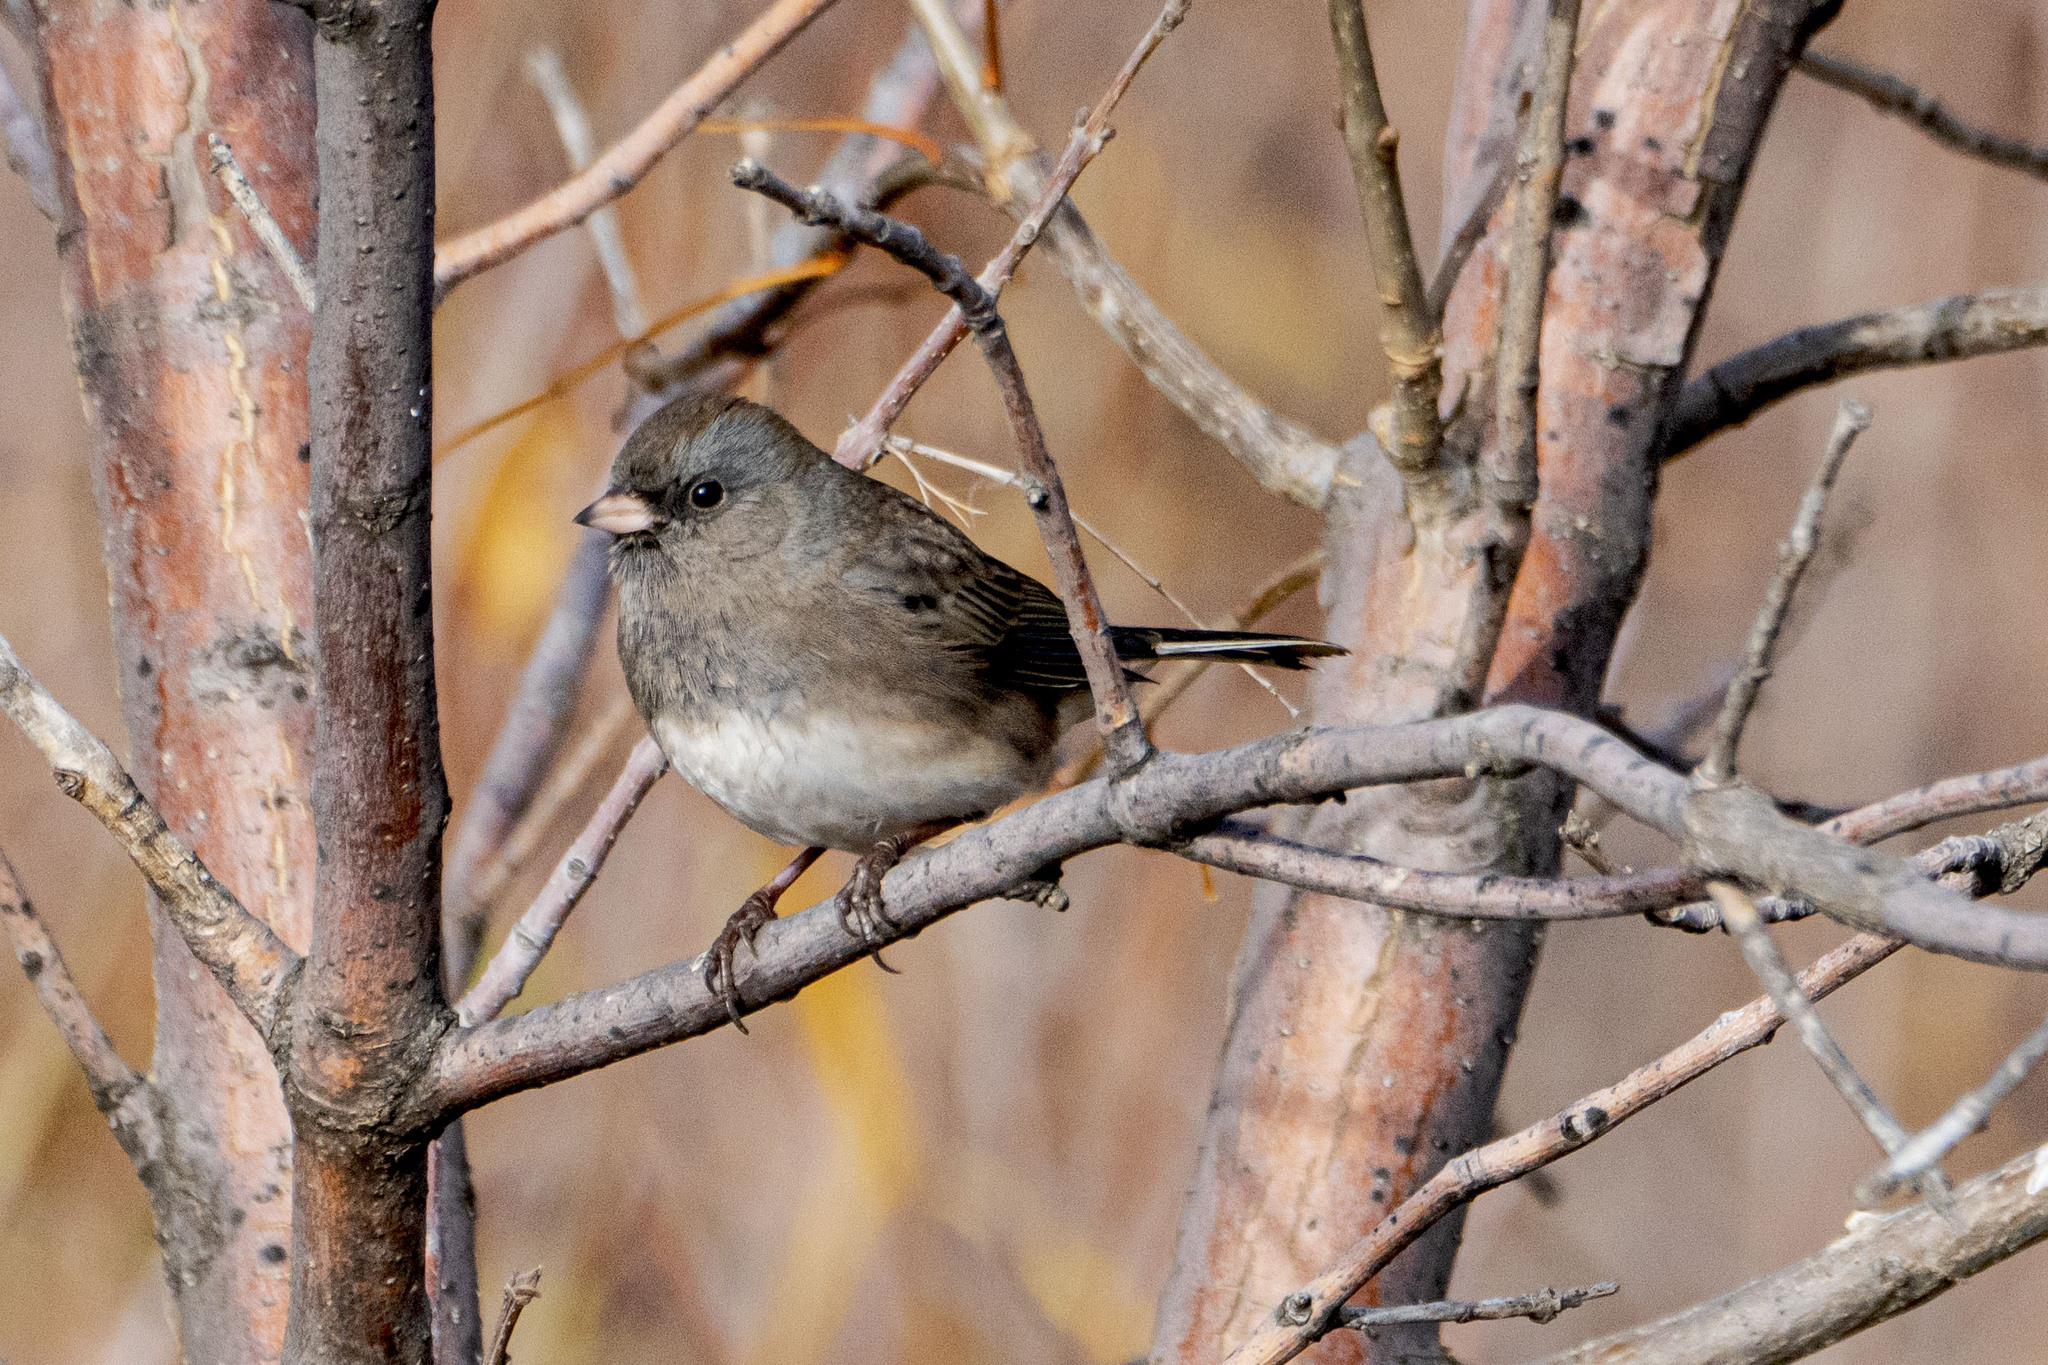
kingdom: Animalia
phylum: Chordata
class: Aves
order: Passeriformes
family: Passerellidae
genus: Junco
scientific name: Junco hyemalis
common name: Dark-eyed junco
